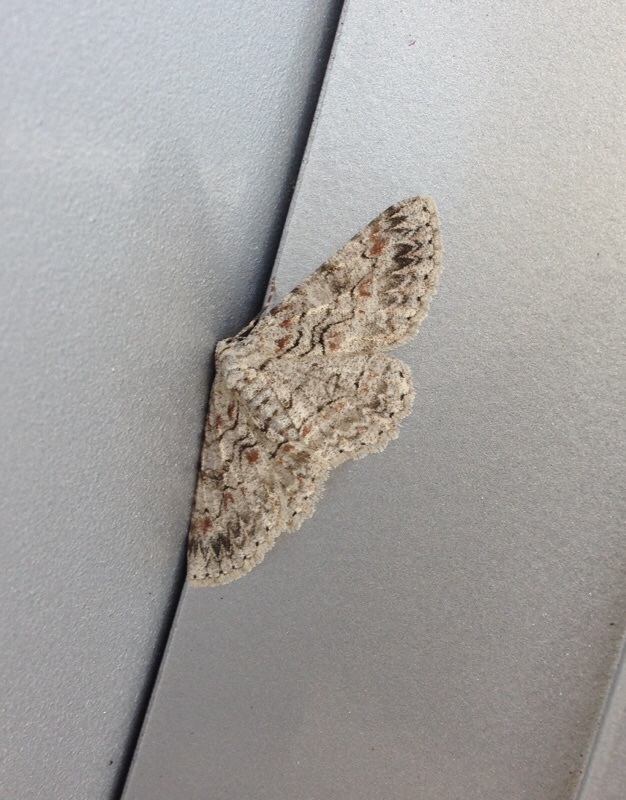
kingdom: Animalia
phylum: Arthropoda
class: Insecta
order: Lepidoptera
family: Geometridae
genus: Iridopsis
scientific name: Iridopsis defectaria
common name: Brown-shaded gray
